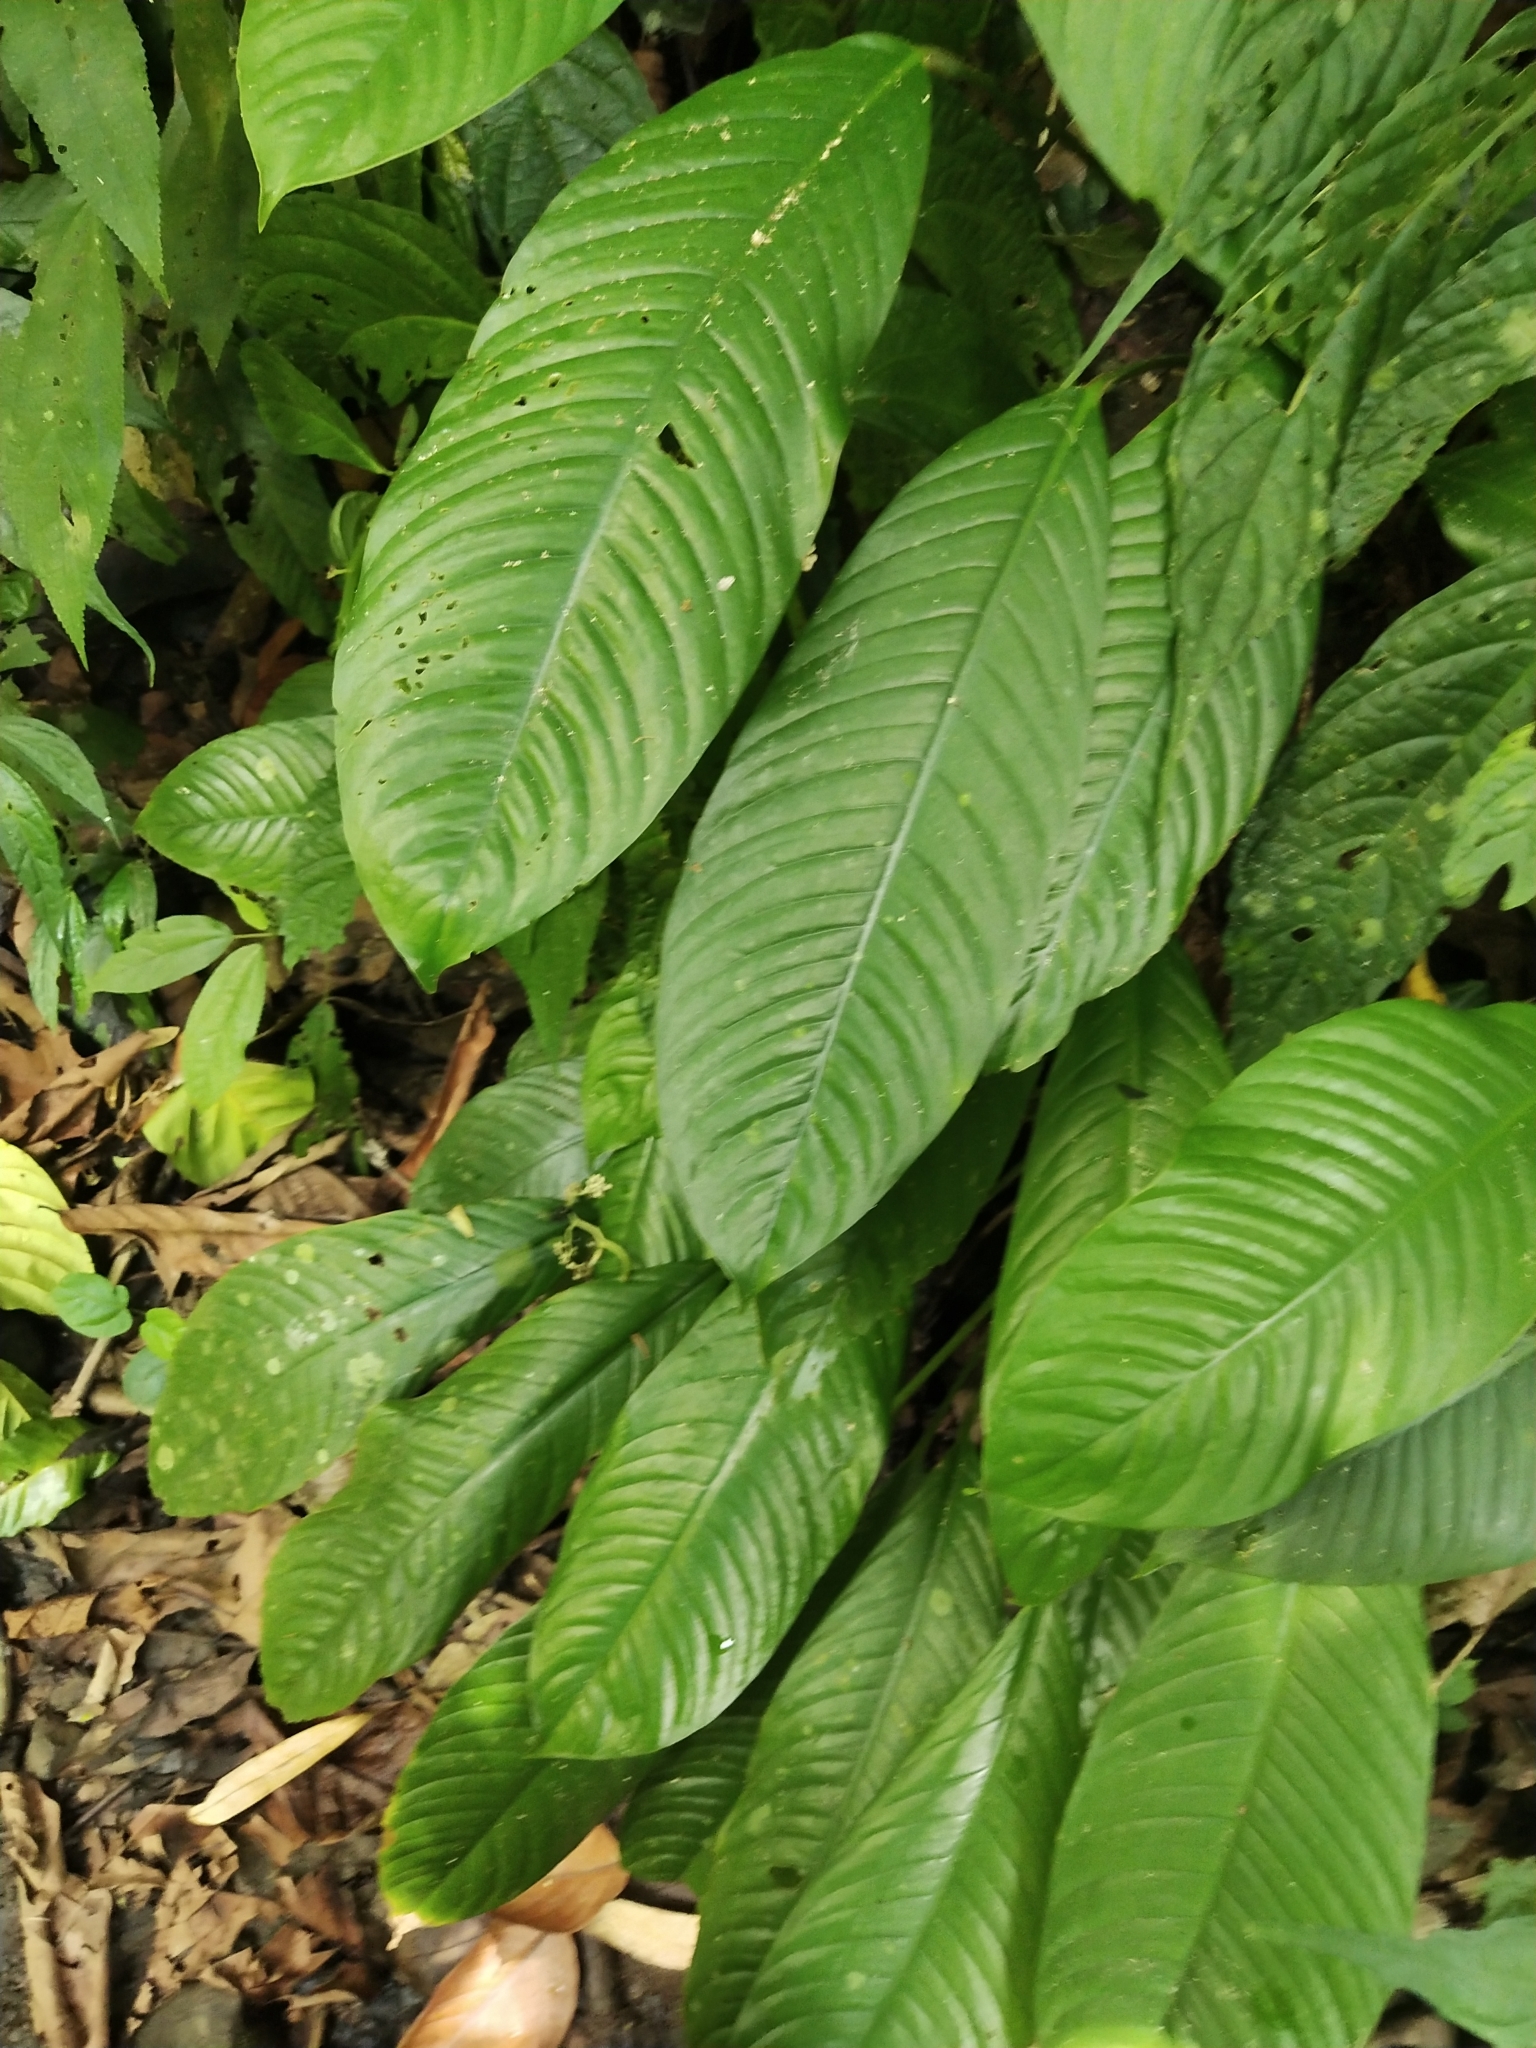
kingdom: Plantae
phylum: Tracheophyta
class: Liliopsida
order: Alismatales
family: Araceae
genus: Spathiphyllum
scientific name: Spathiphyllum commutatum
